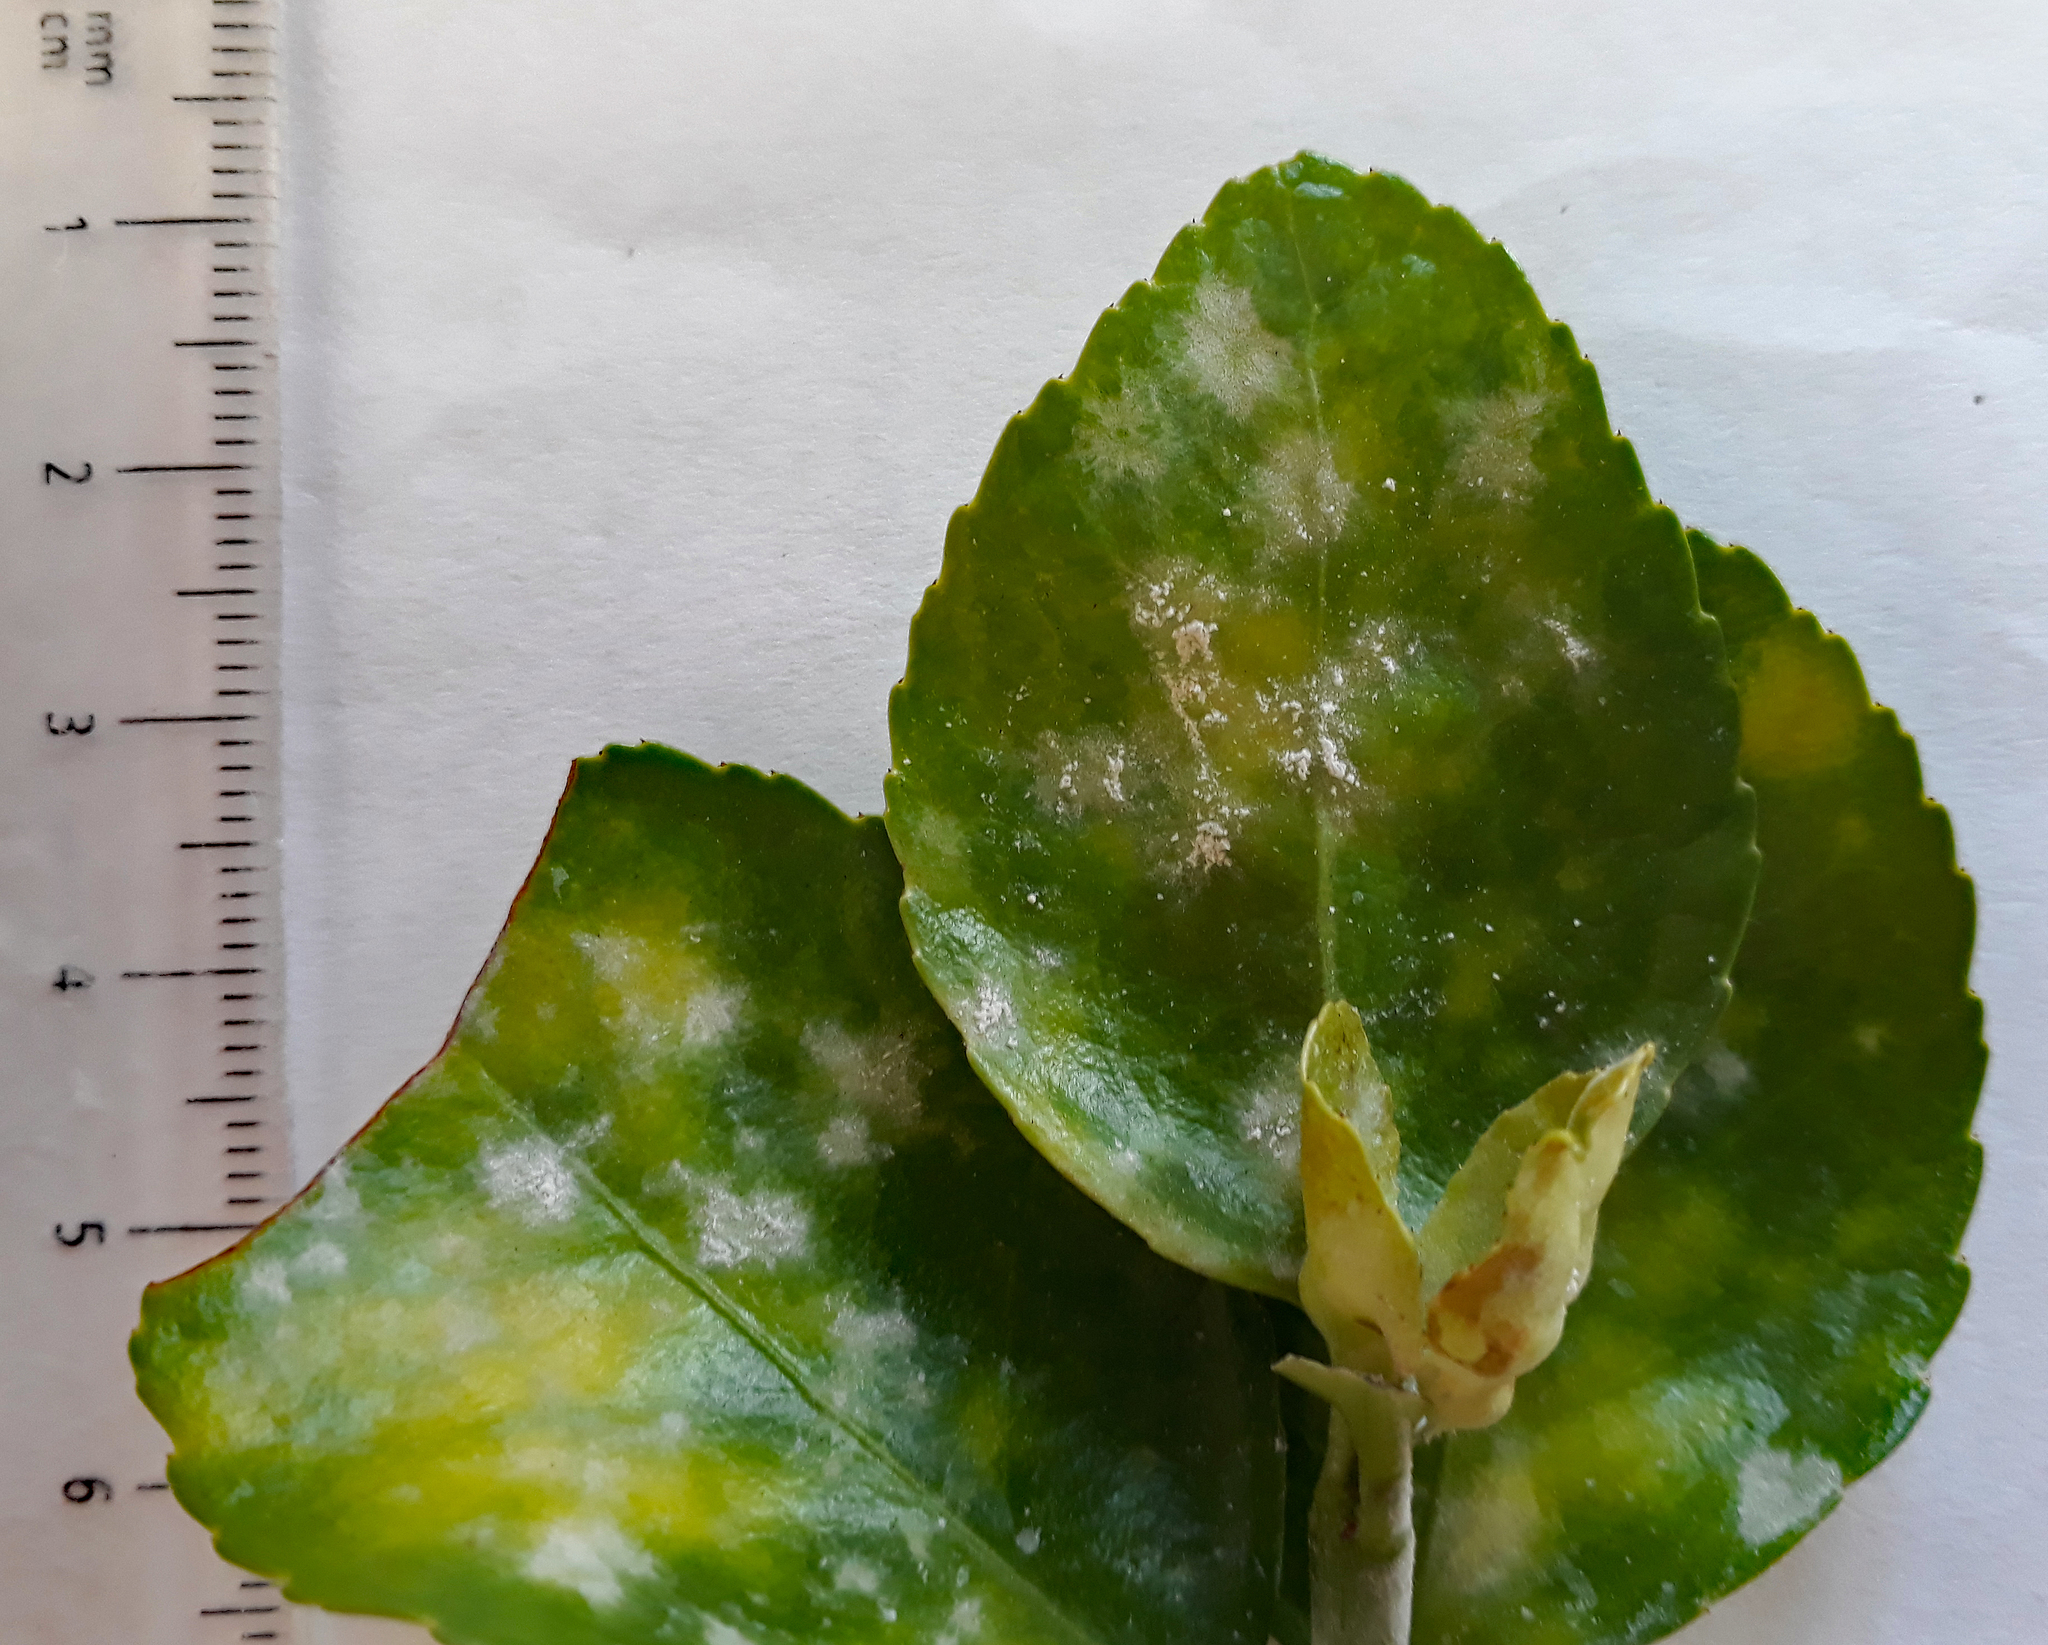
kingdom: Fungi
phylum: Ascomycota
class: Leotiomycetes
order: Helotiales
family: Erysiphaceae
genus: Erysiphe
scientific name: Erysiphe euonymicola
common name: Spindletree mildew
